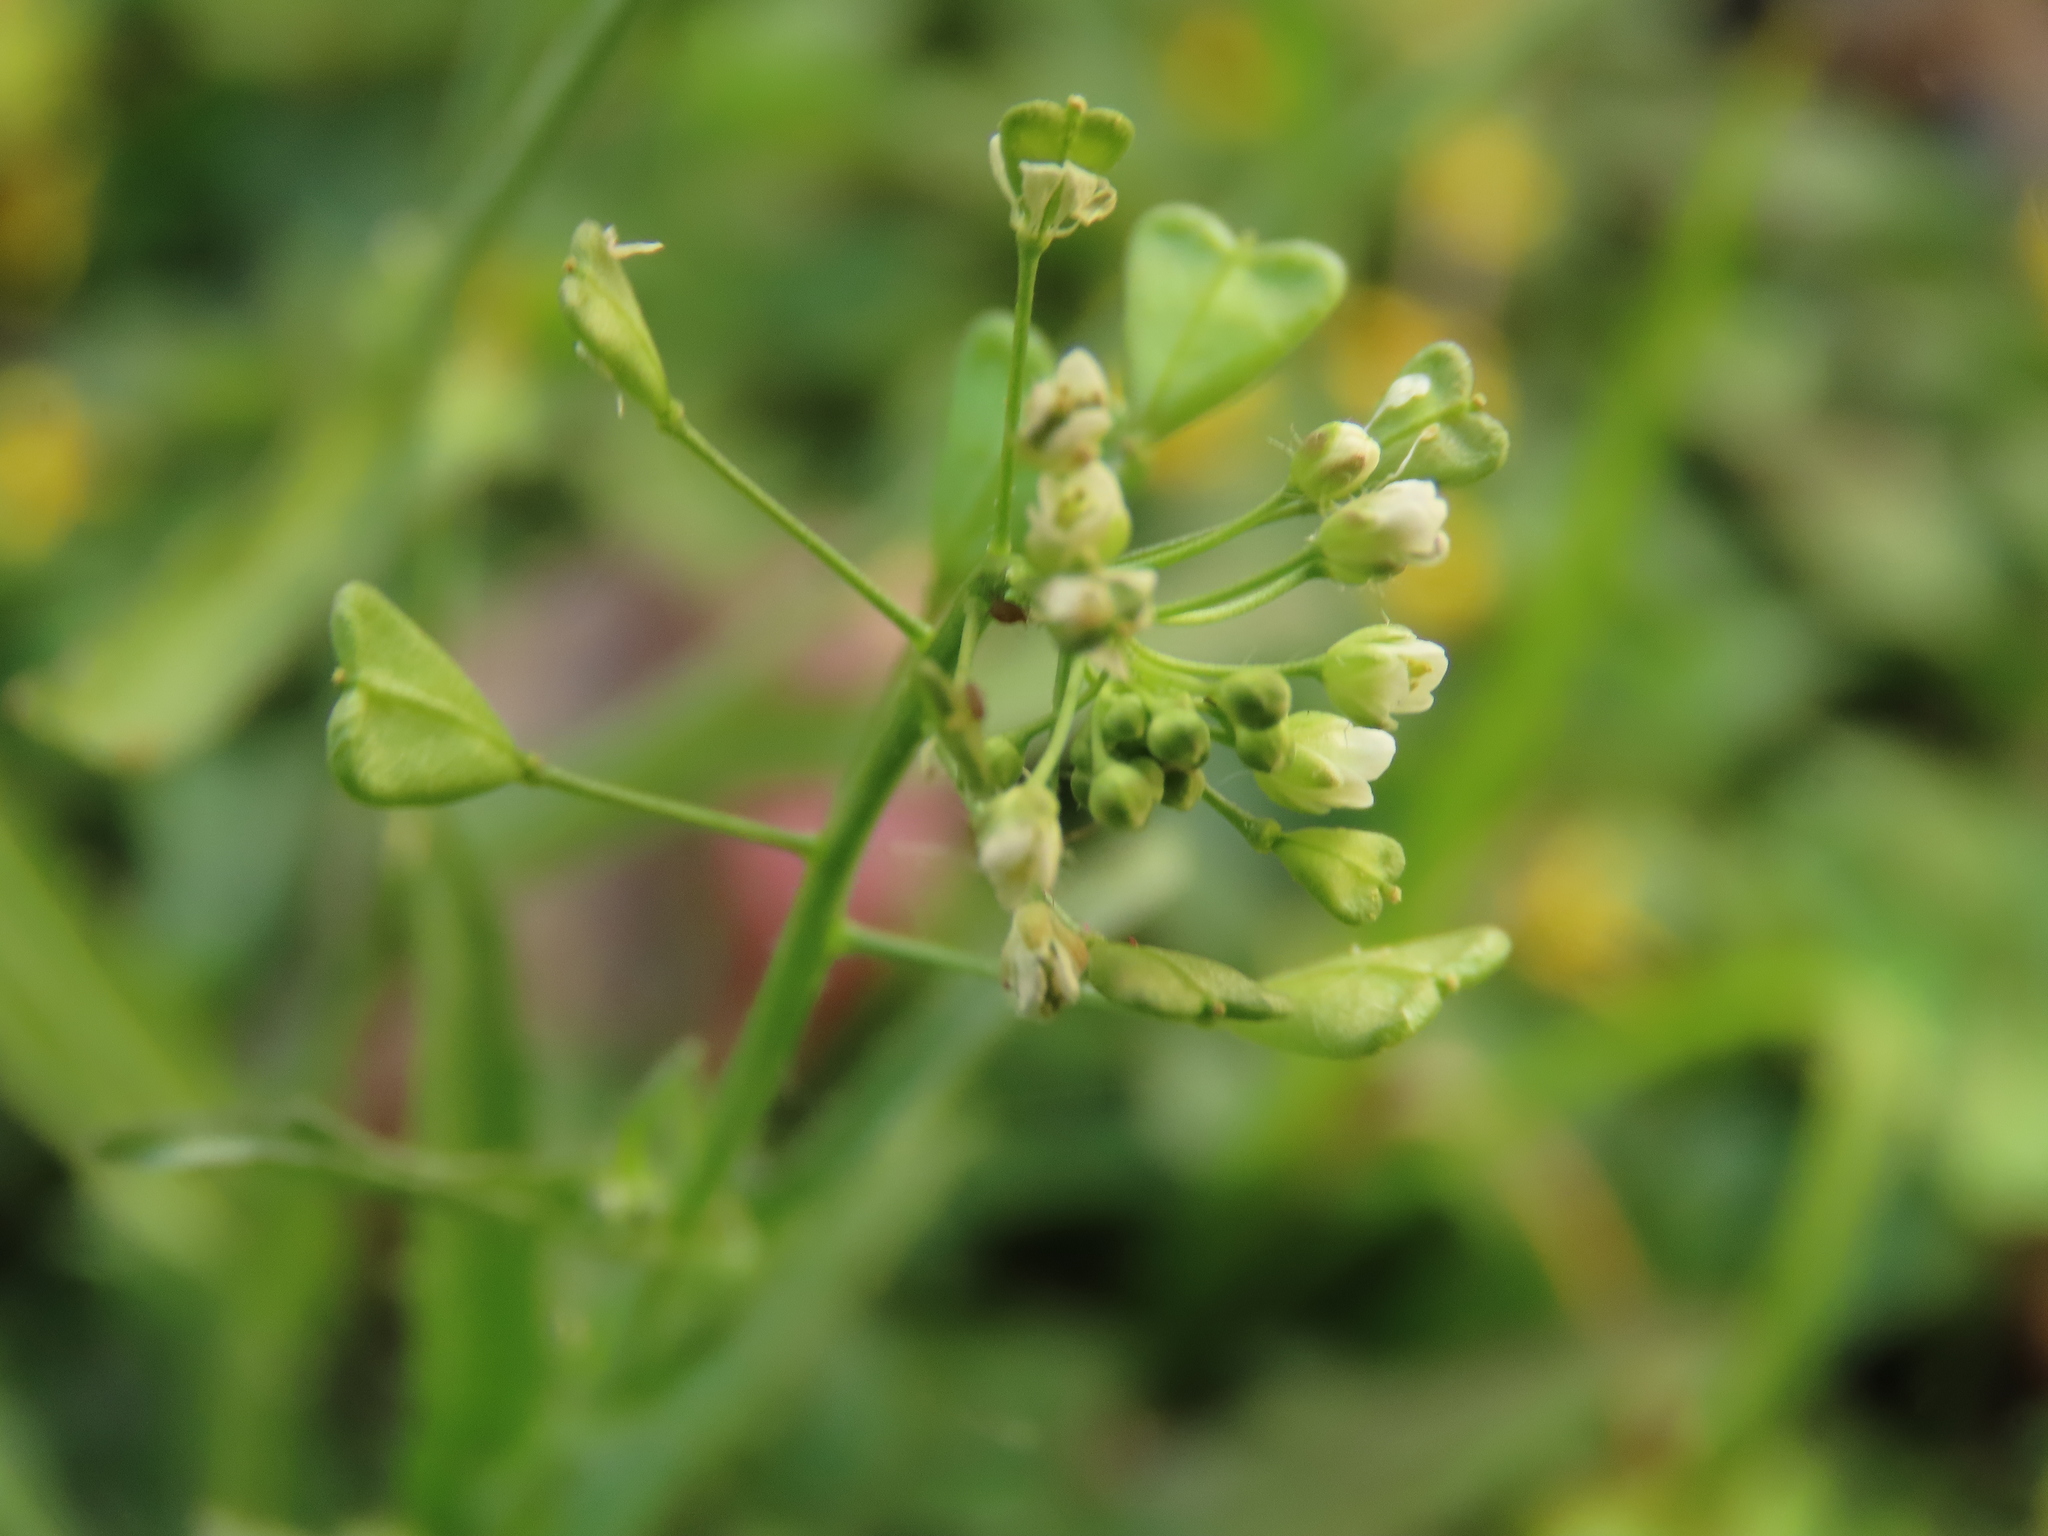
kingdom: Plantae
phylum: Tracheophyta
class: Magnoliopsida
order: Brassicales
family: Brassicaceae
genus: Capsella
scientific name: Capsella bursa-pastoris
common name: Shepherd's purse
